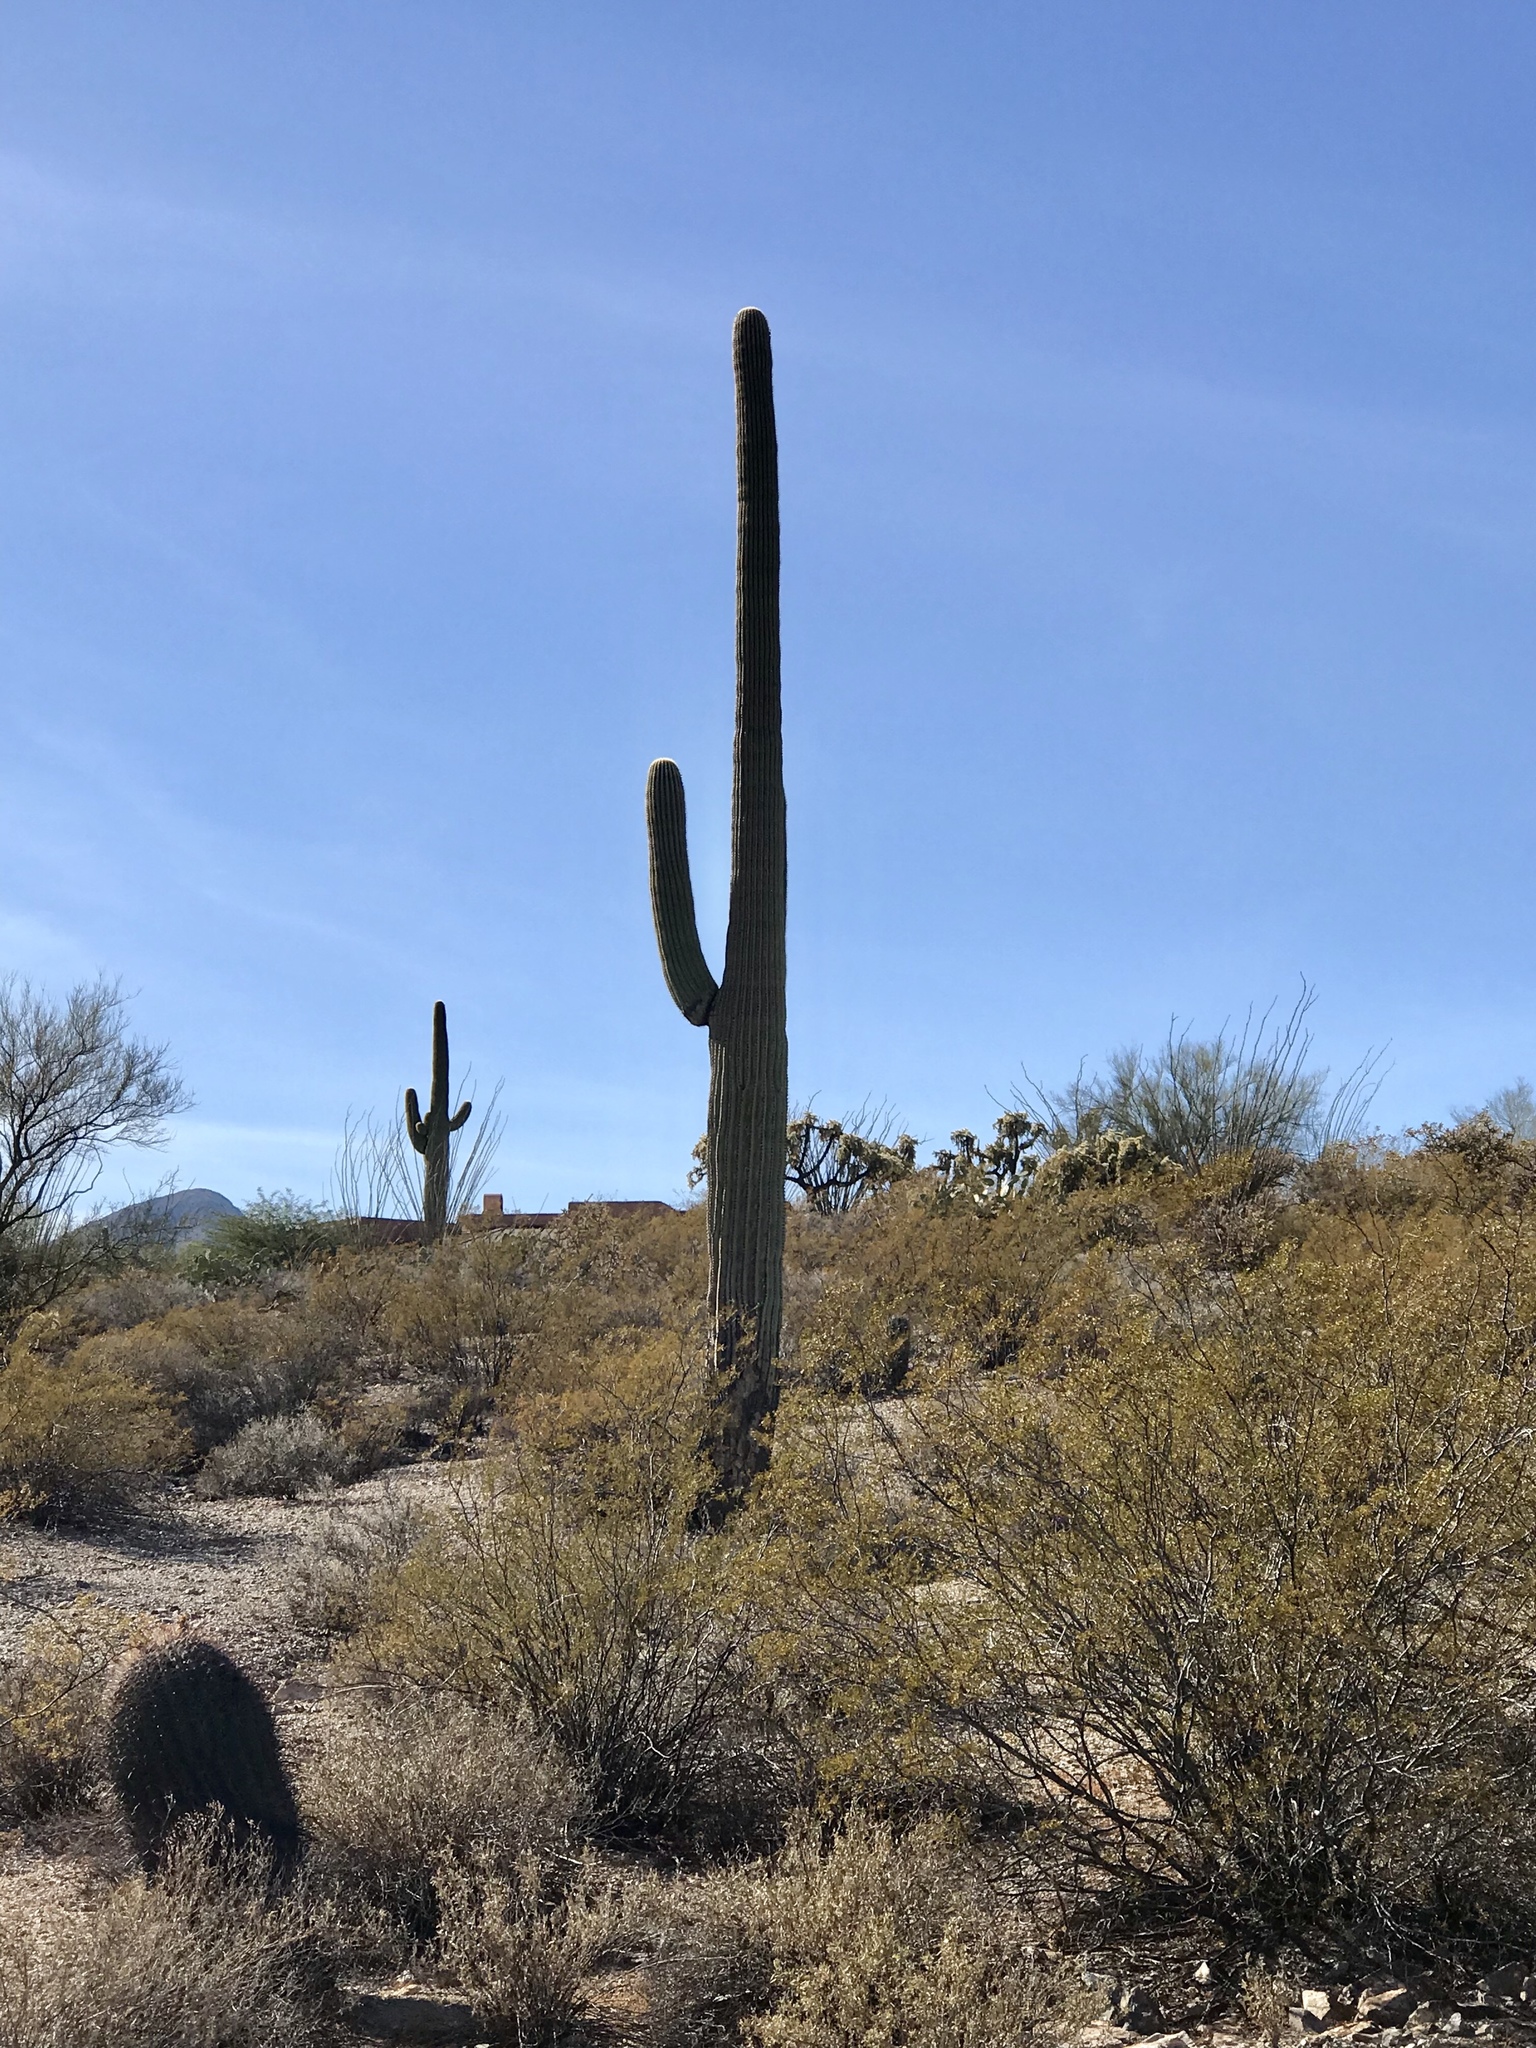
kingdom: Plantae
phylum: Tracheophyta
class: Magnoliopsida
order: Caryophyllales
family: Cactaceae
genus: Carnegiea
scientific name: Carnegiea gigantea
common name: Saguaro
